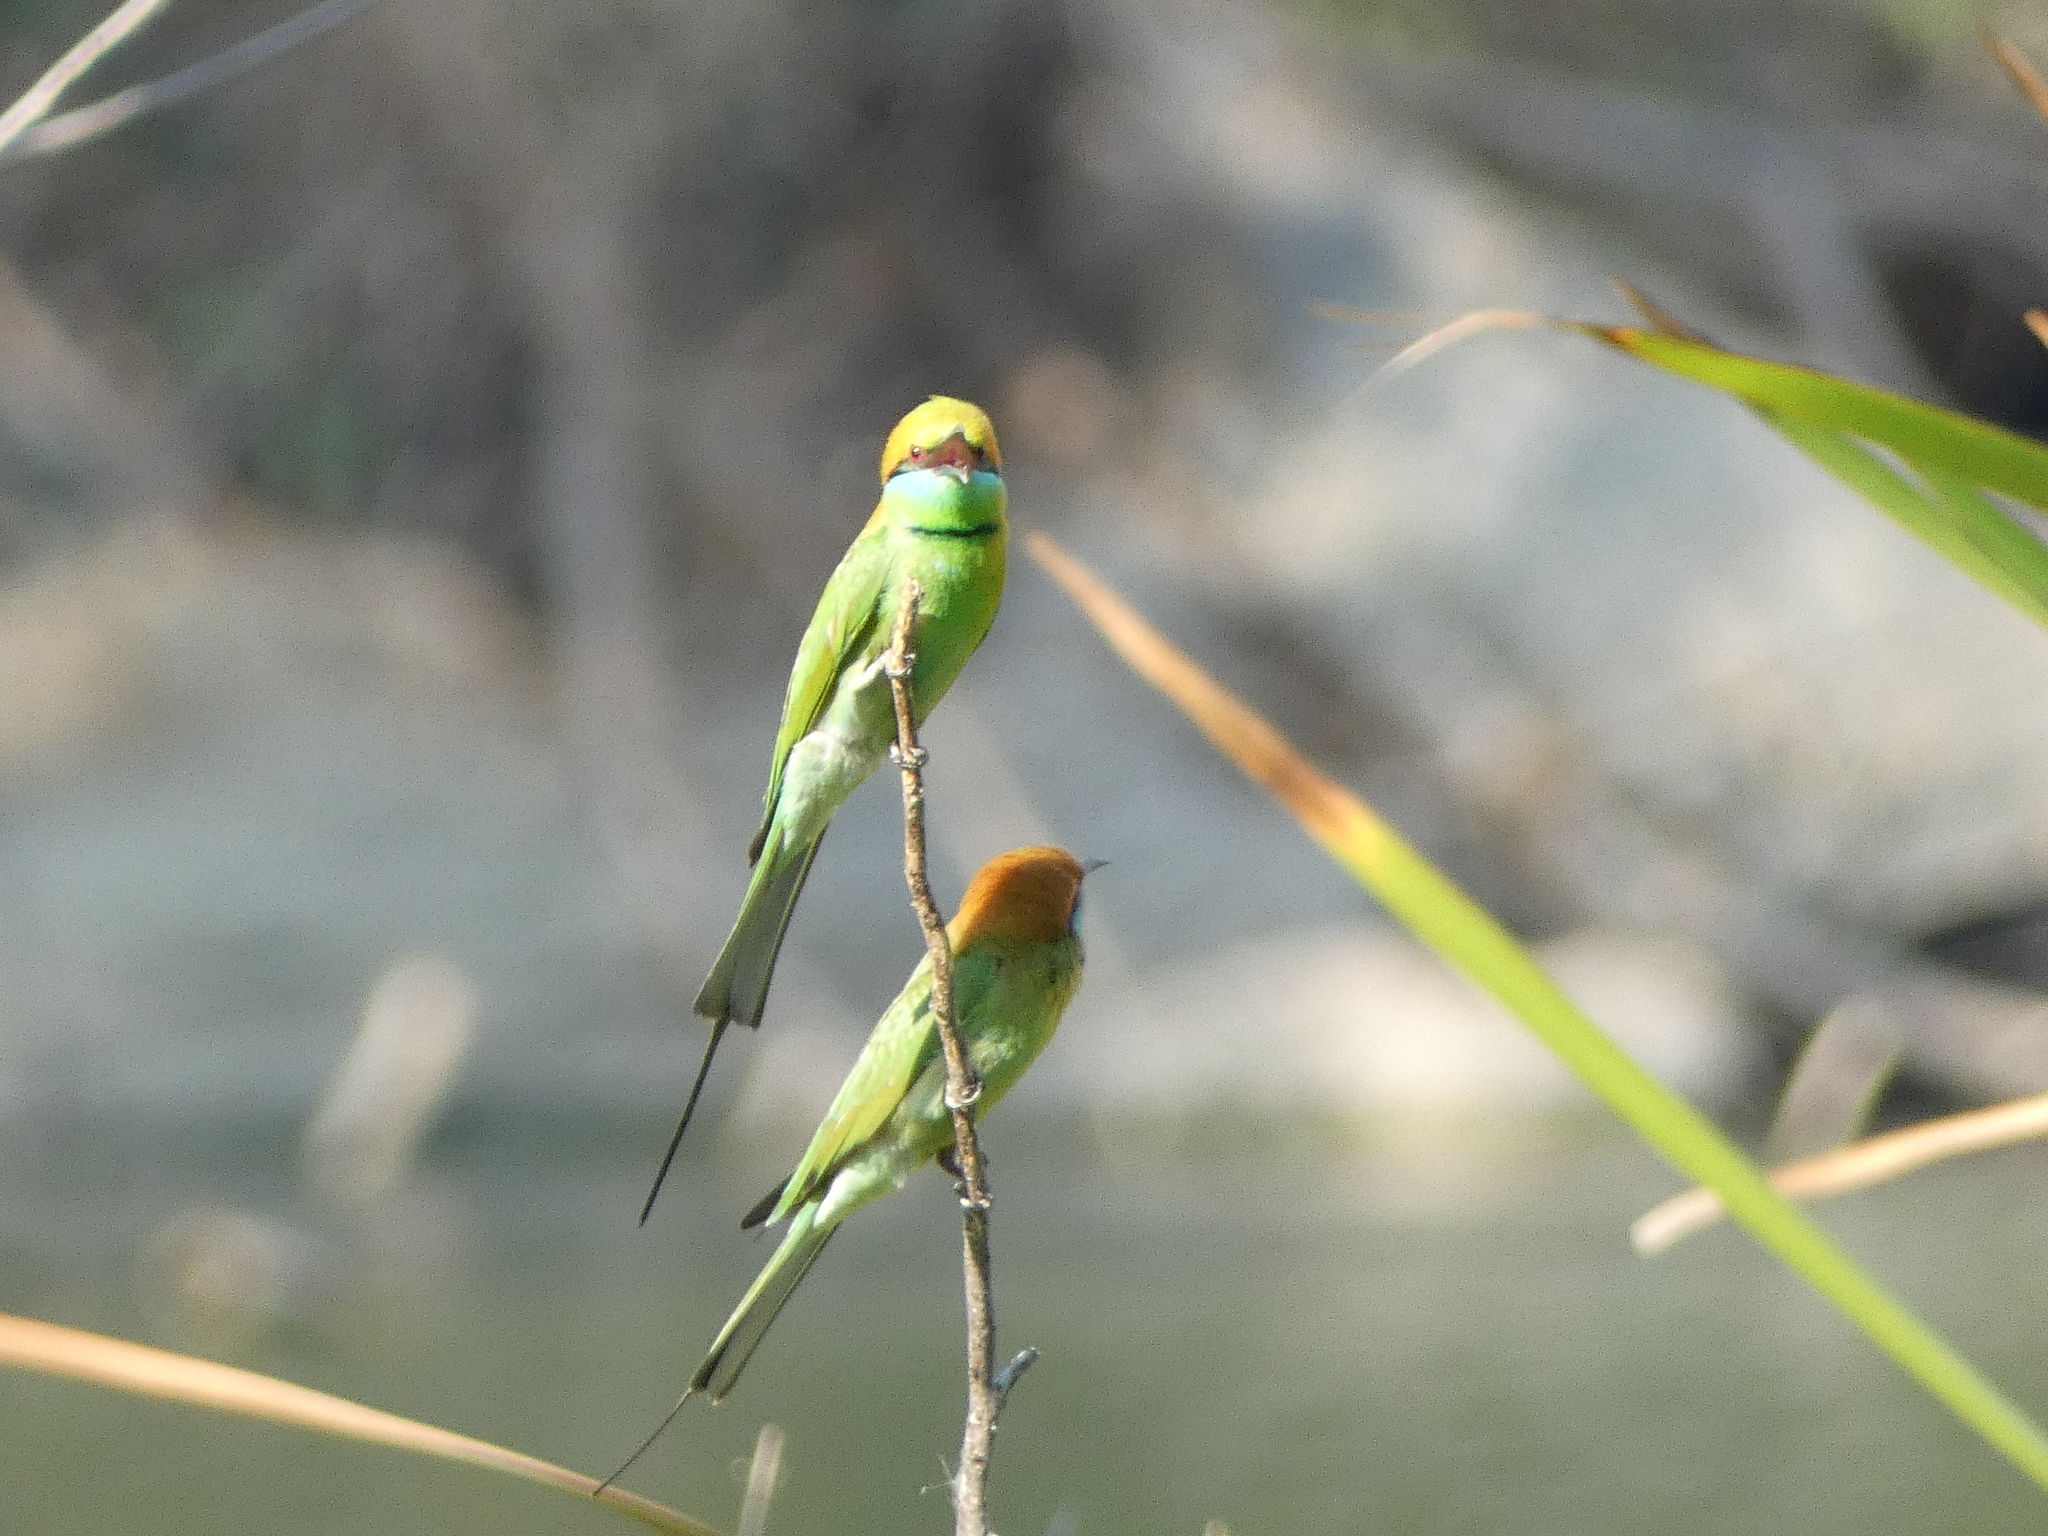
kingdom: Animalia
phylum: Chordata
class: Aves
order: Coraciiformes
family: Meropidae
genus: Merops
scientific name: Merops orientalis
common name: Green bee-eater
